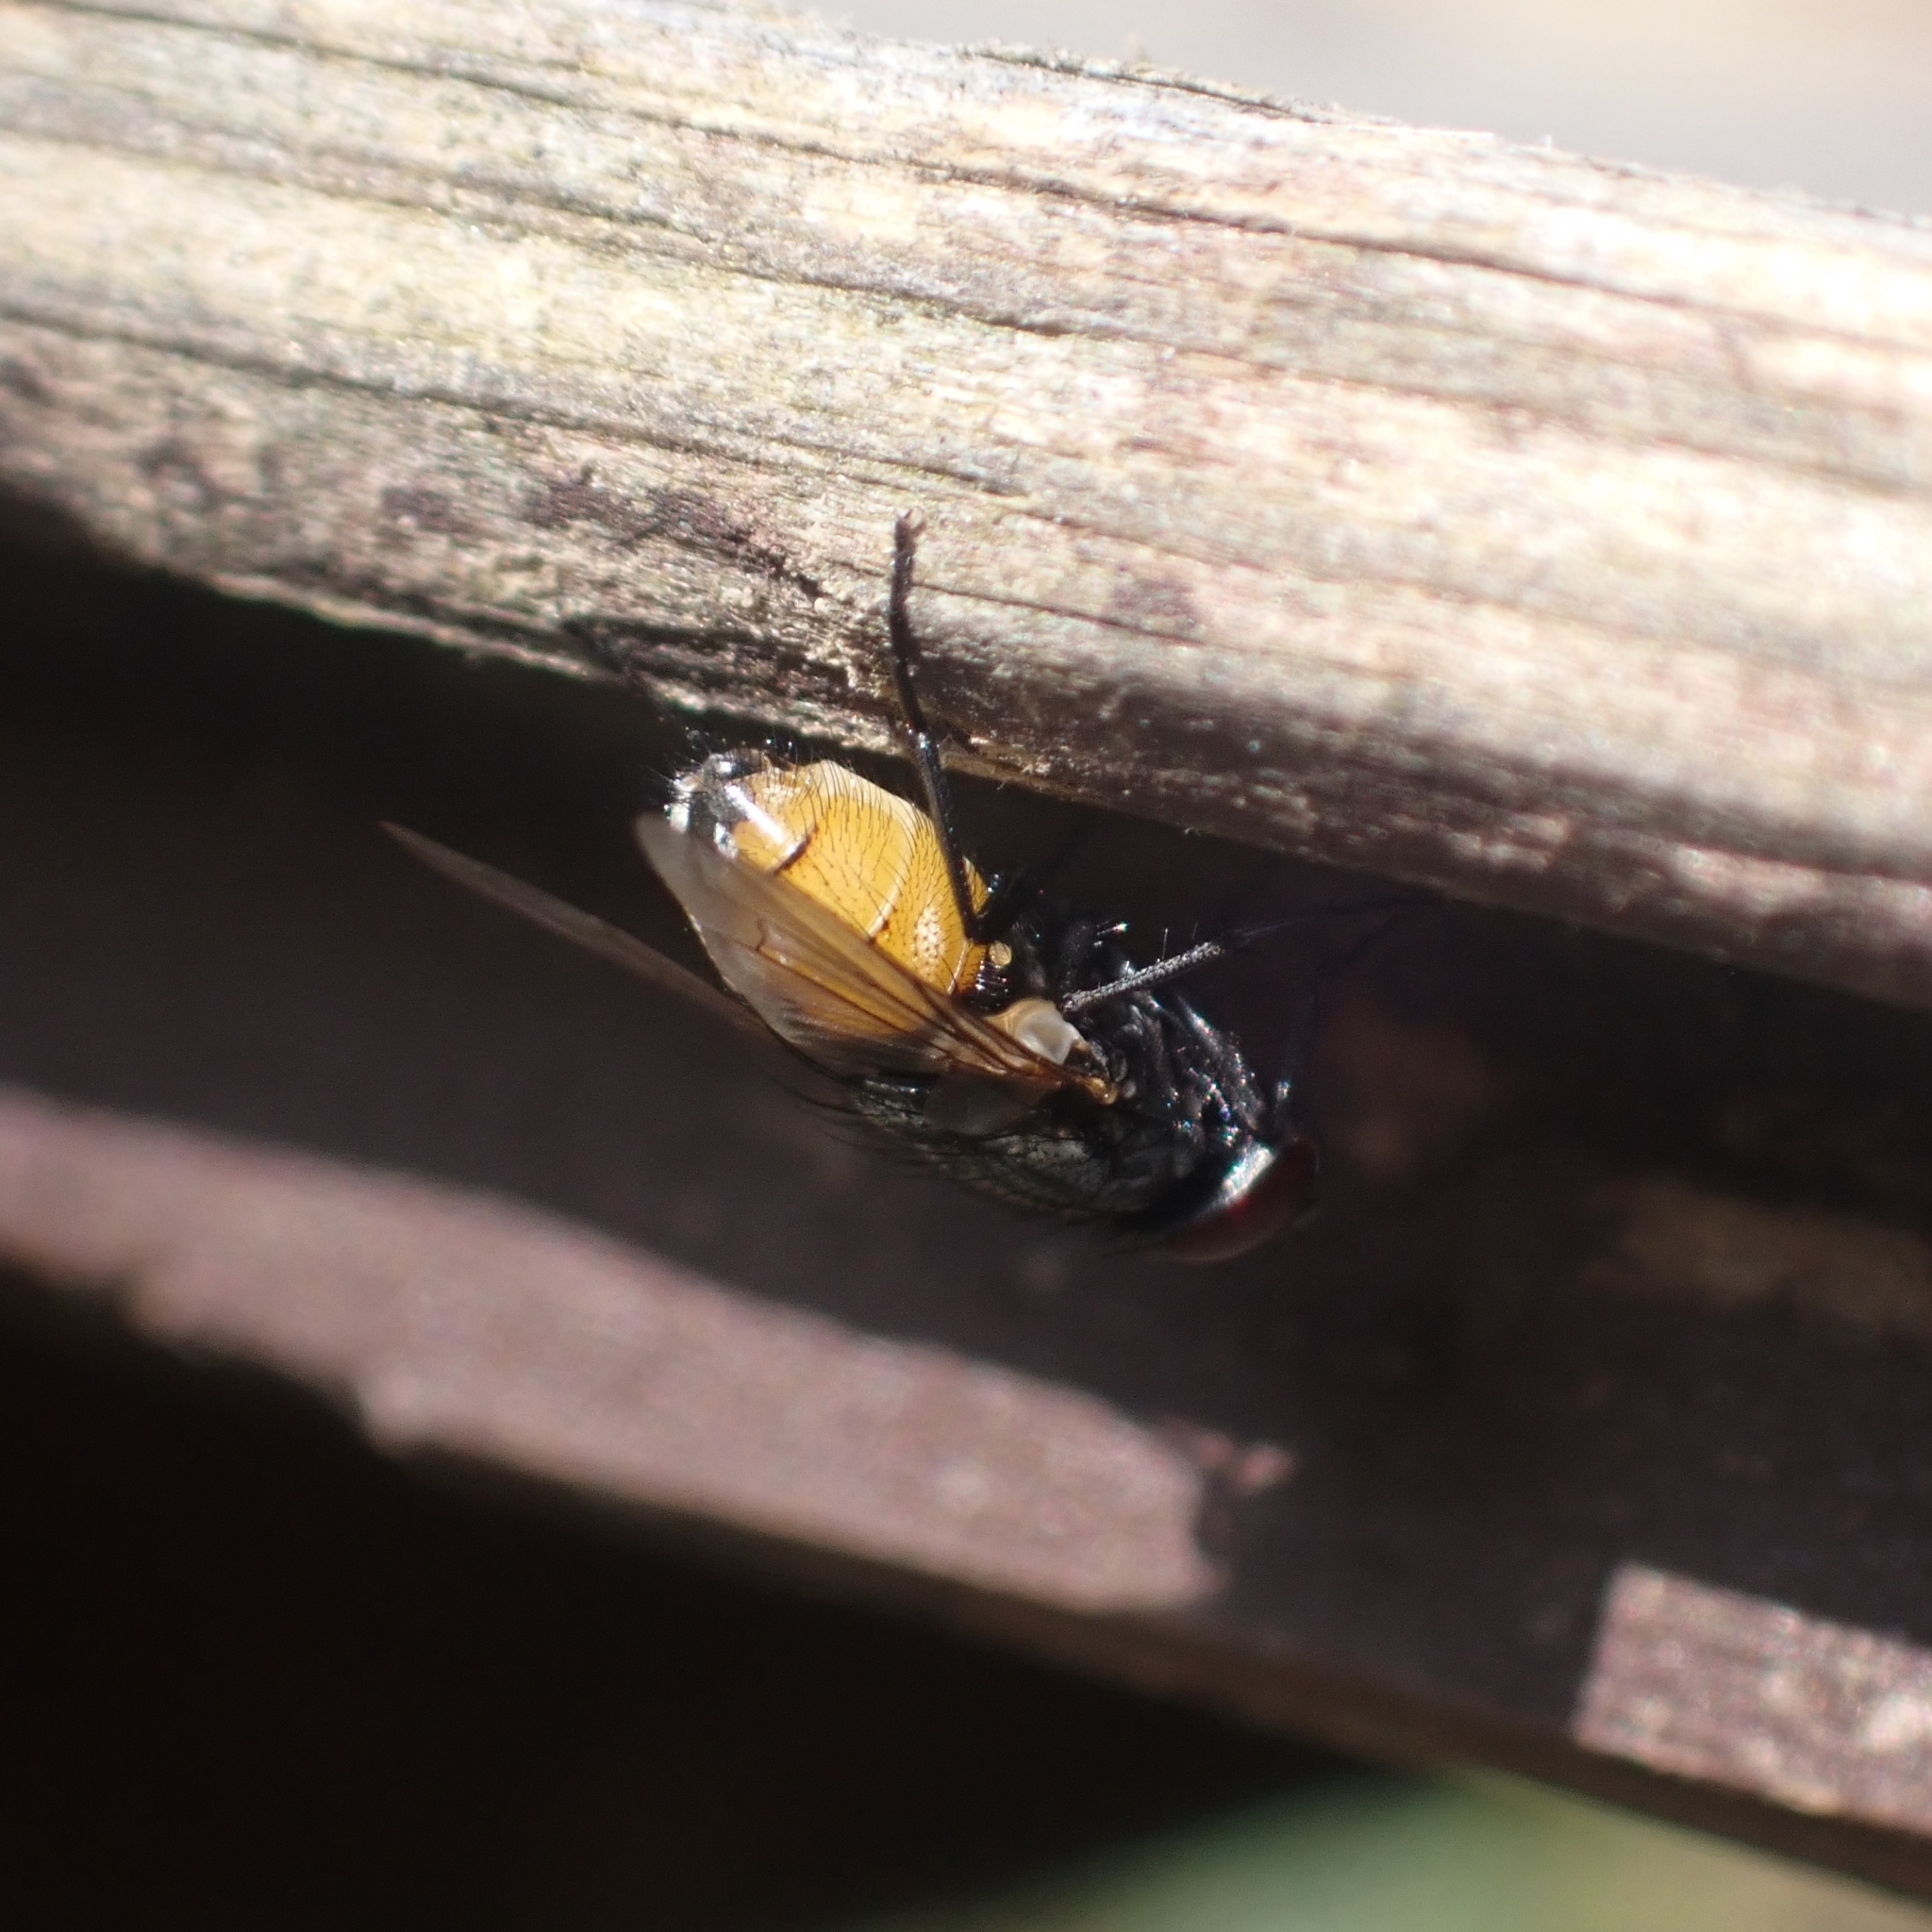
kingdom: Animalia
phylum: Arthropoda
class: Insecta
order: Diptera
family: Muscidae
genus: Musca
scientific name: Musca autumnalis
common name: Face fly
